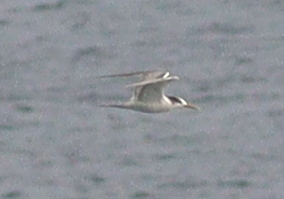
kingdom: Animalia
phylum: Chordata
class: Aves
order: Charadriiformes
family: Laridae
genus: Thalasseus
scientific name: Thalasseus bergii
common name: Greater crested tern
